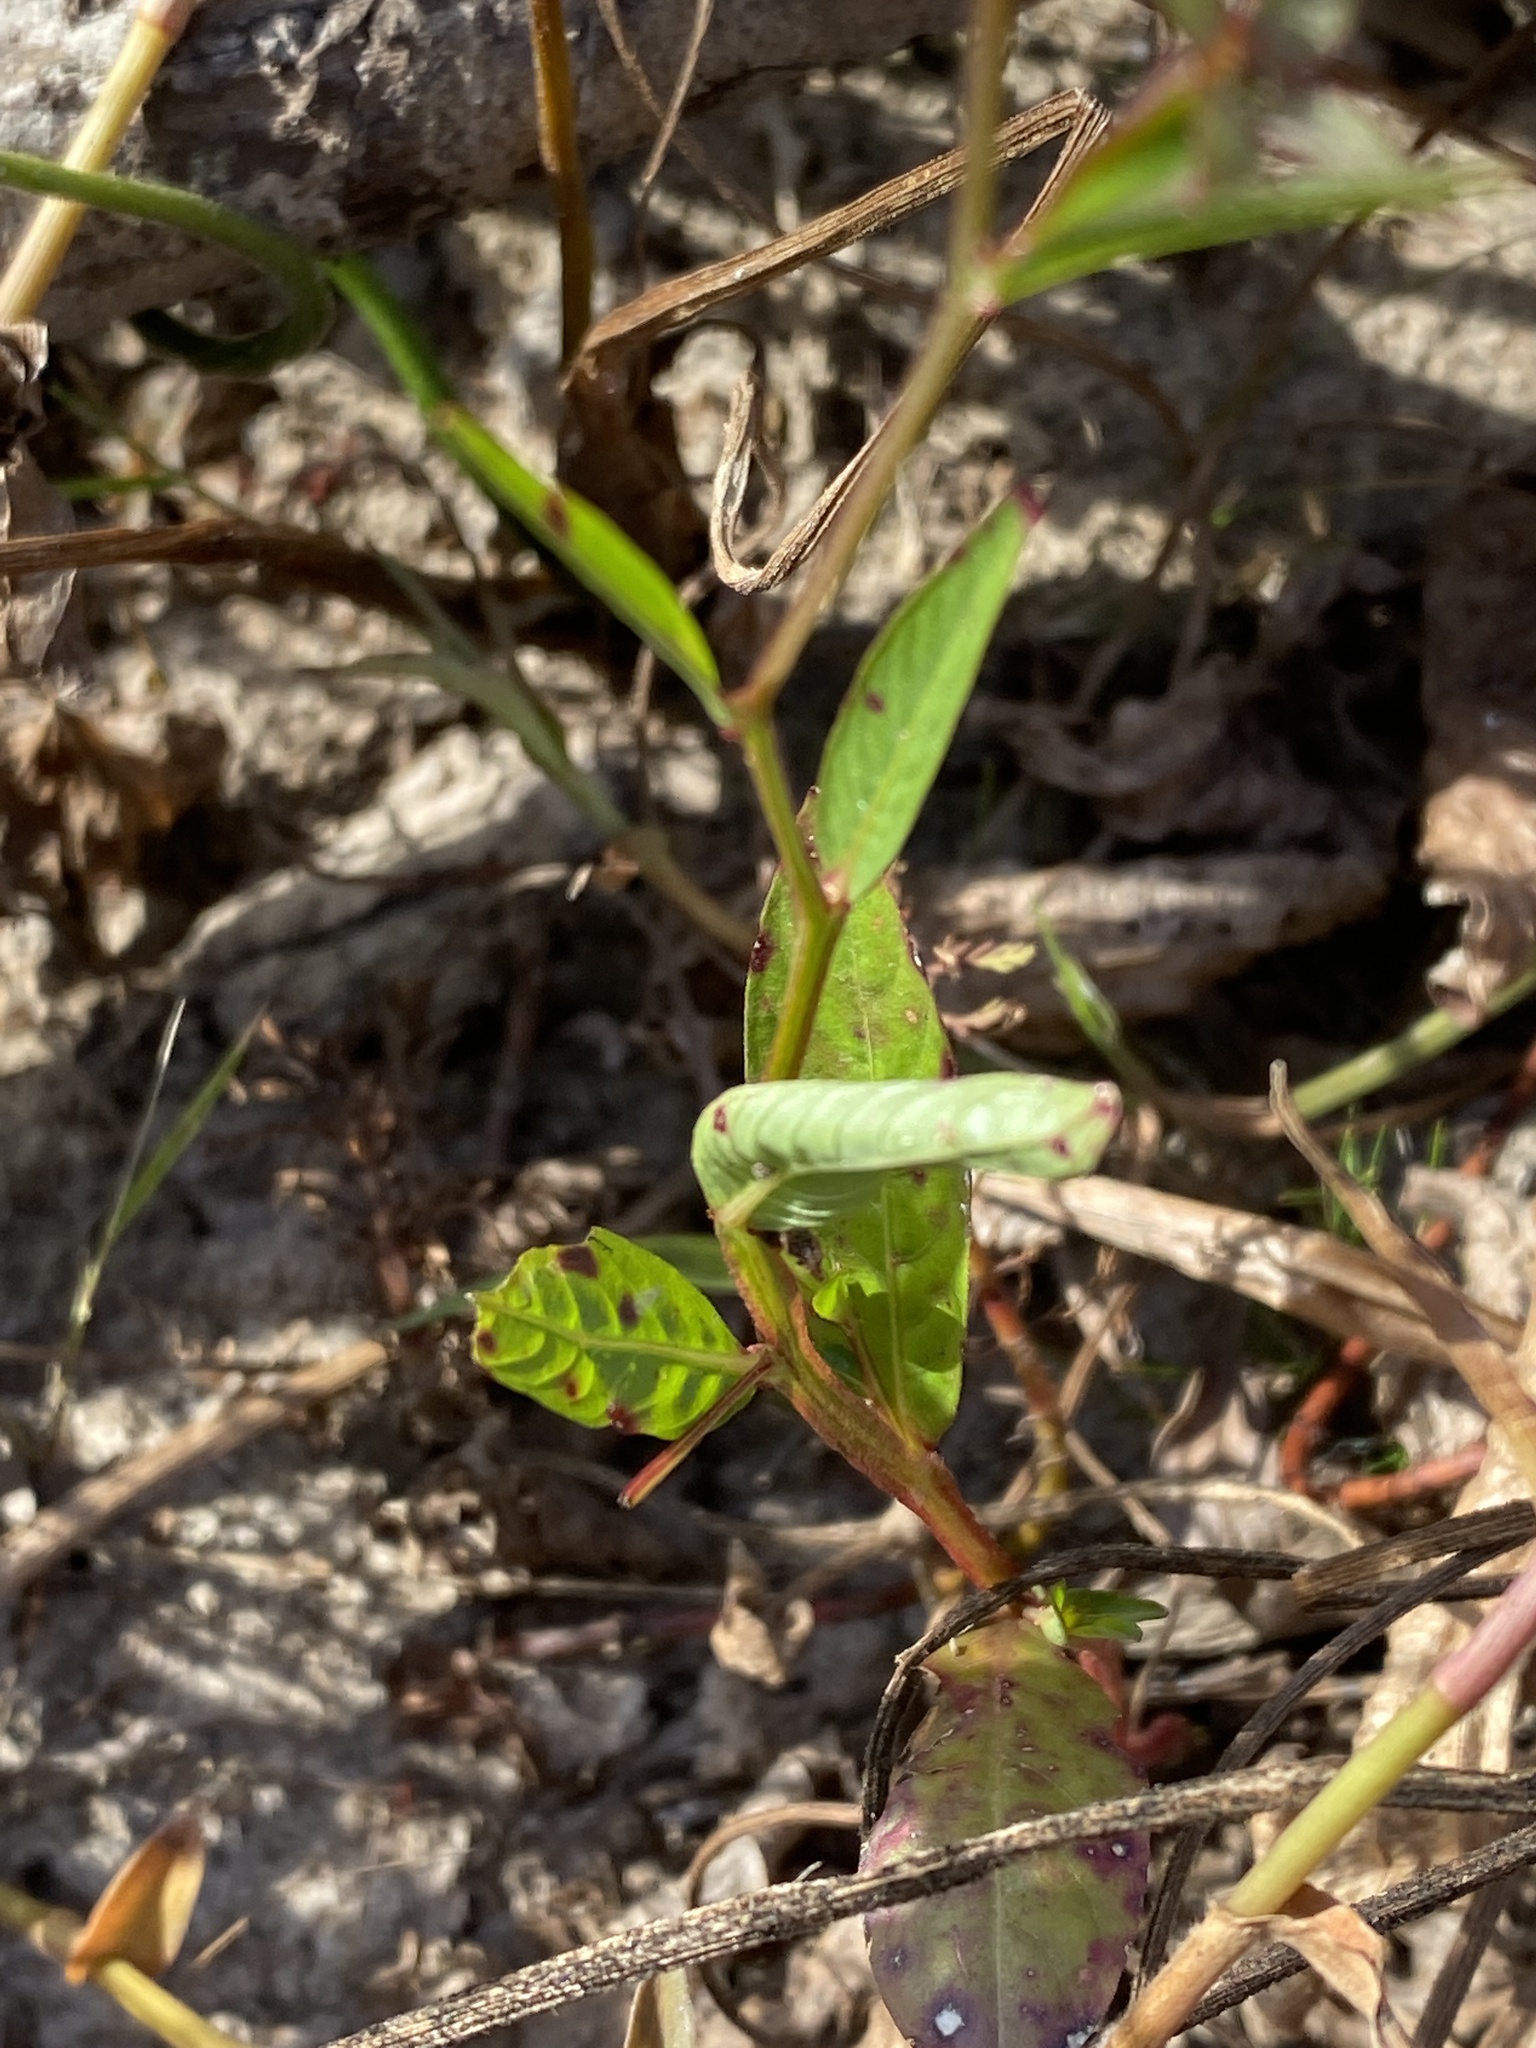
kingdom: Plantae
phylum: Tracheophyta
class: Magnoliopsida
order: Myrtales
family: Onagraceae
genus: Ludwigia
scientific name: Ludwigia decurrens
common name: Winged water-primrose
